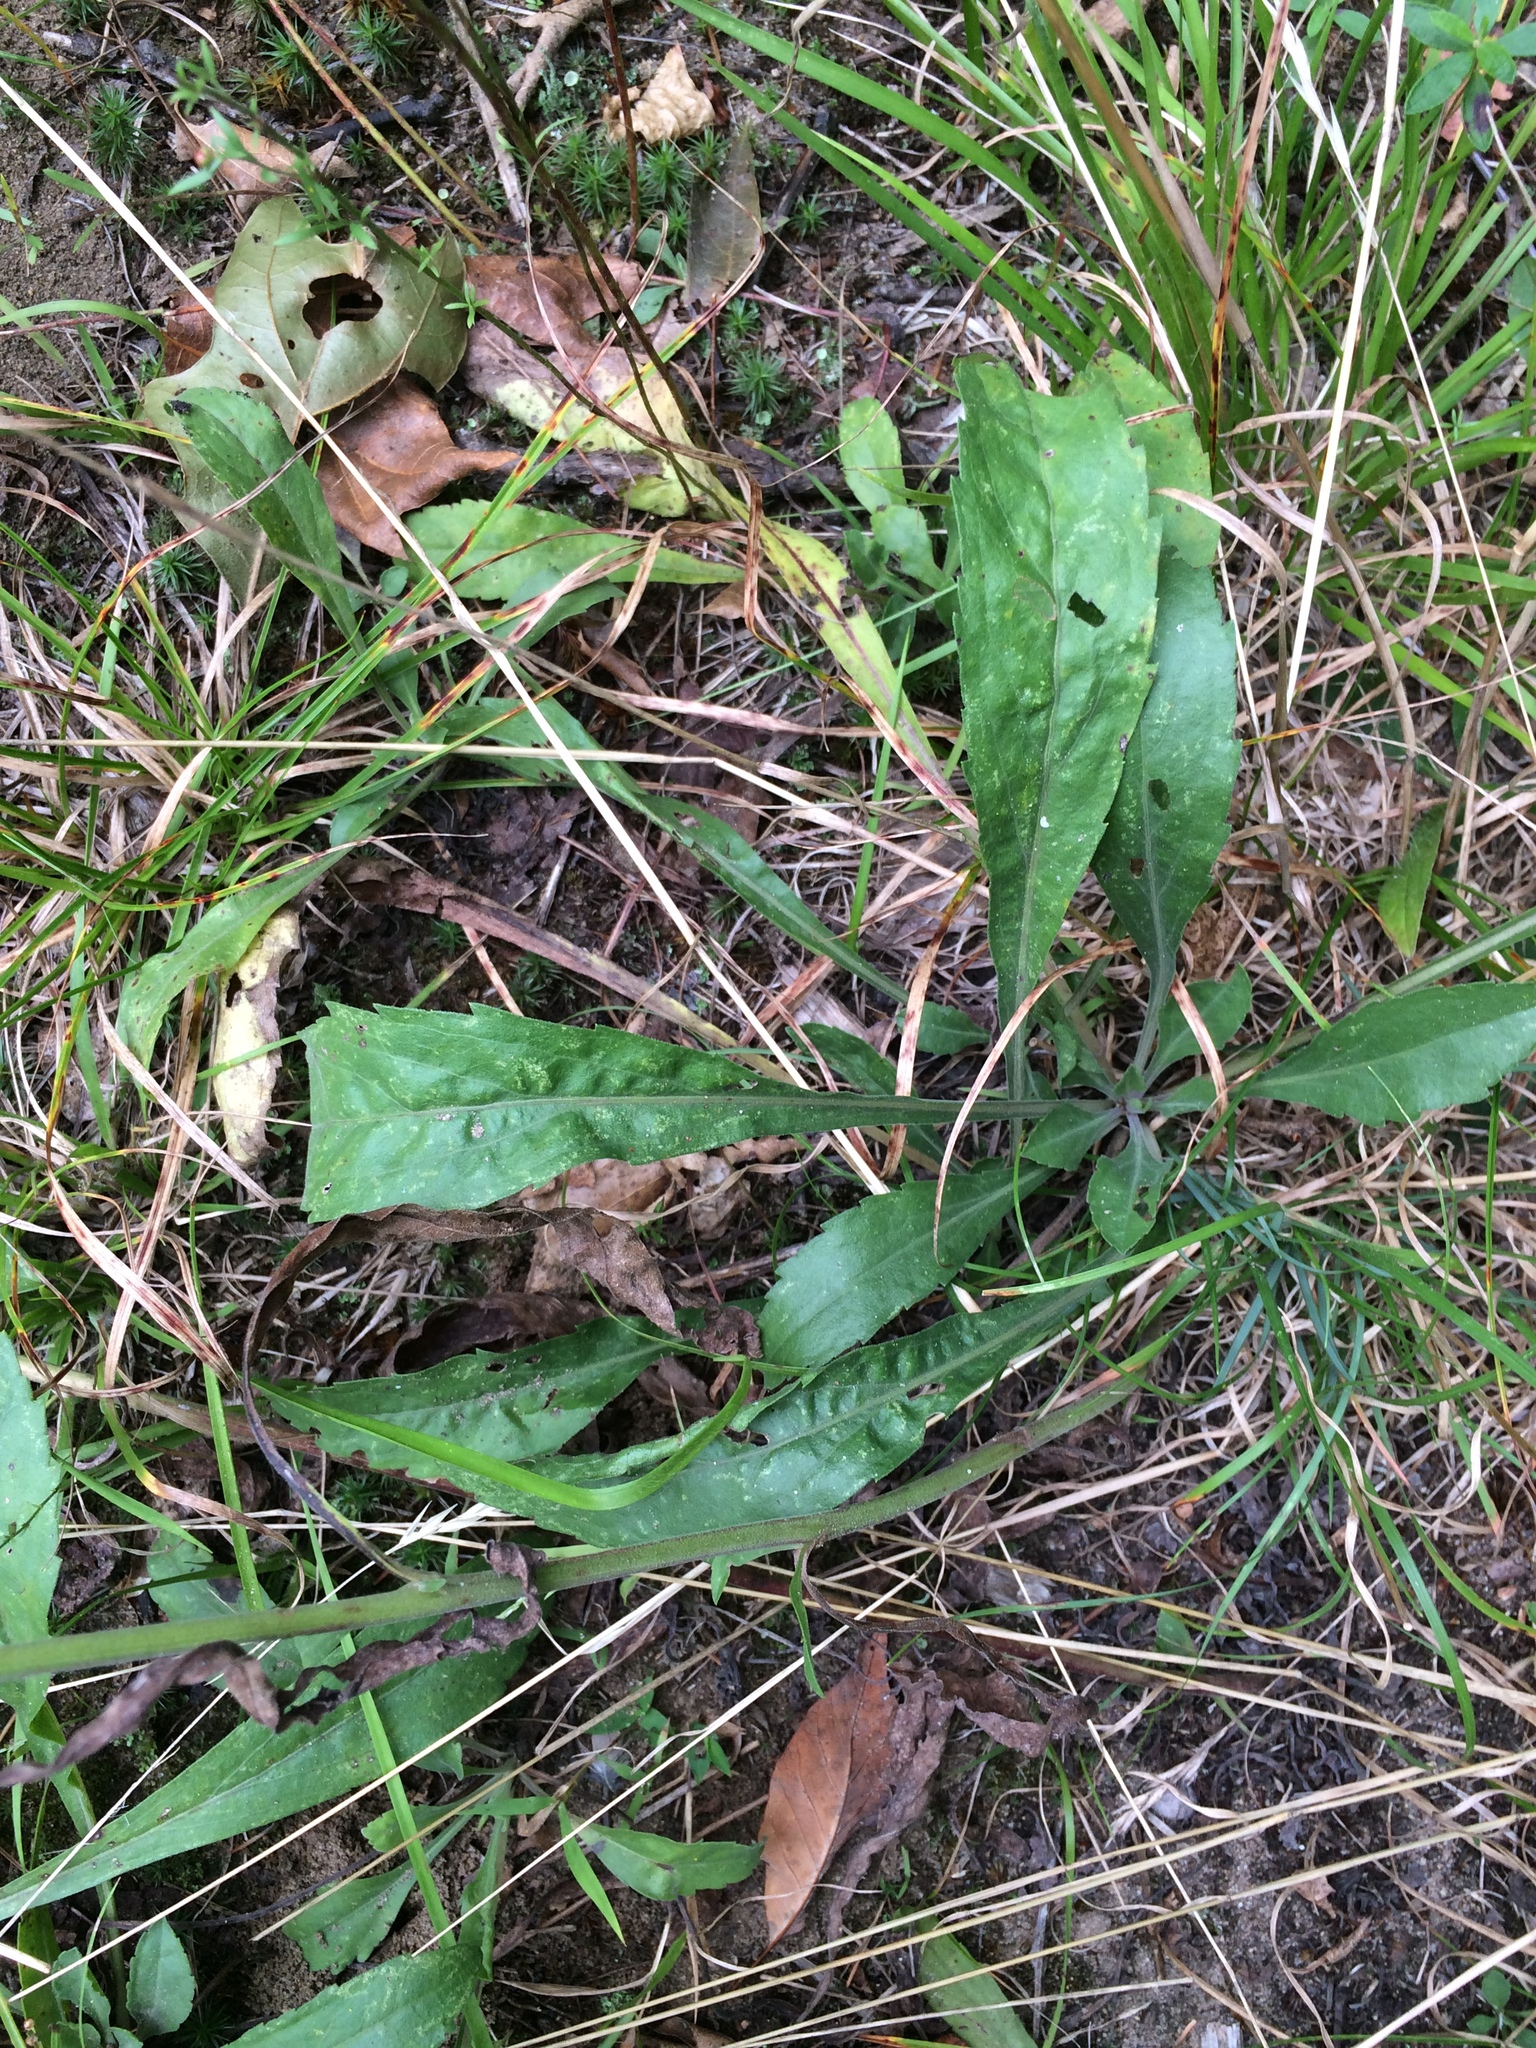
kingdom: Plantae
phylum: Tracheophyta
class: Magnoliopsida
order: Asterales
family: Asteraceae
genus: Solidago
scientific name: Solidago nemoralis
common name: Grey goldenrod
